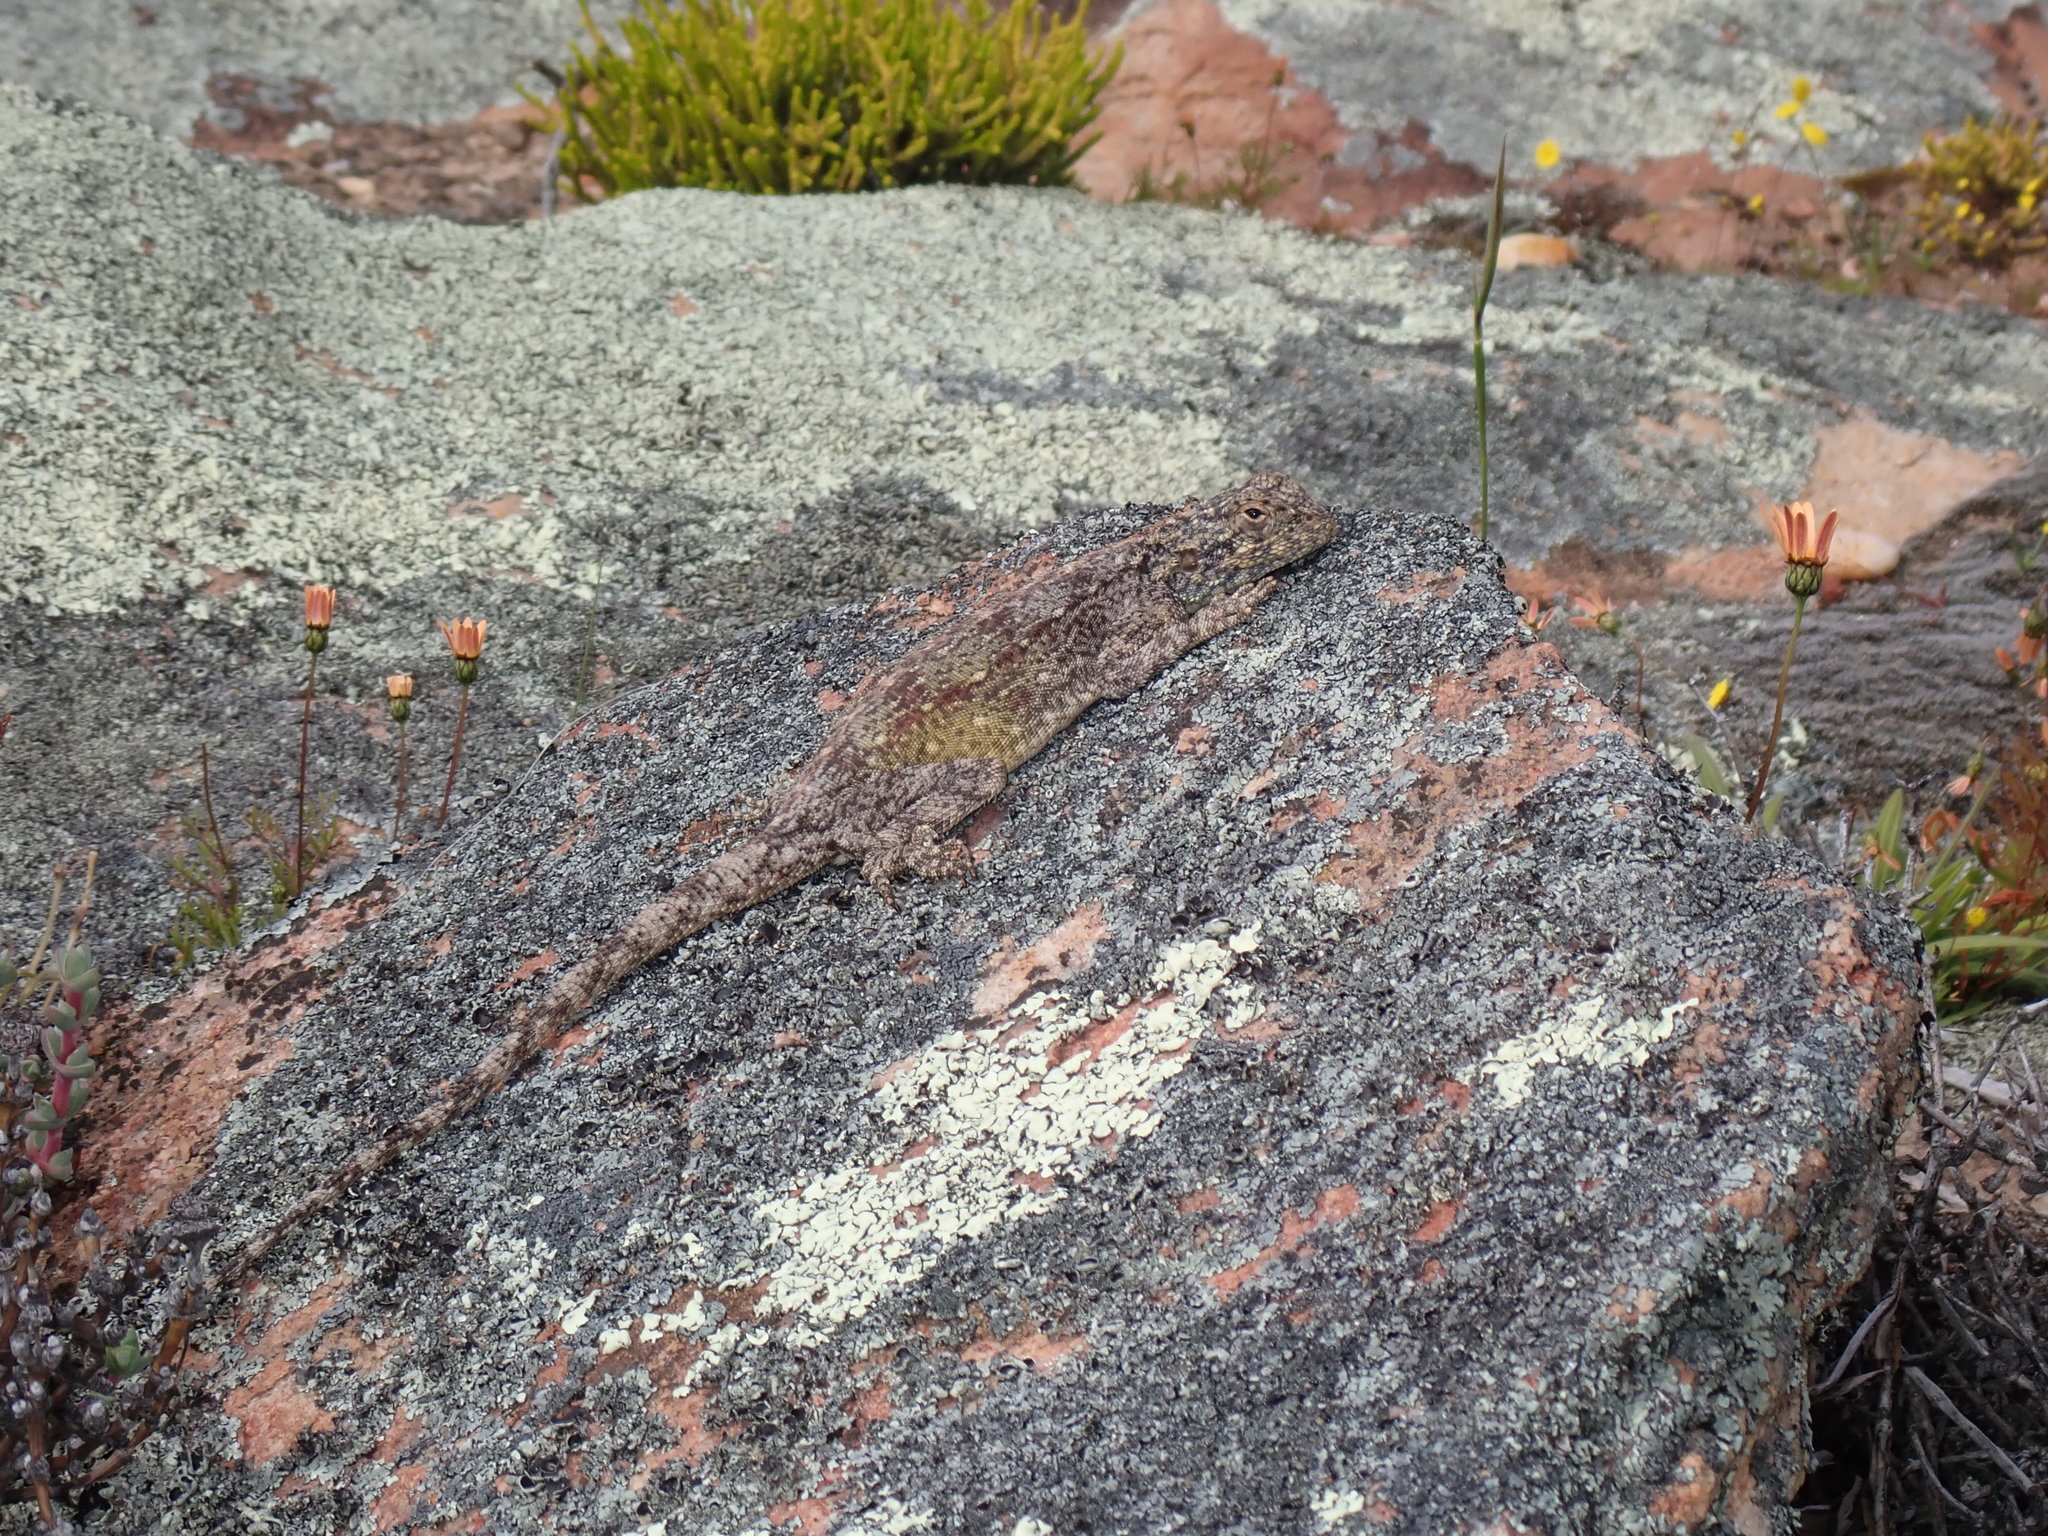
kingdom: Animalia
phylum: Chordata
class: Squamata
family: Agamidae
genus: Agama
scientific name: Agama atra
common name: Southern african rock agama
